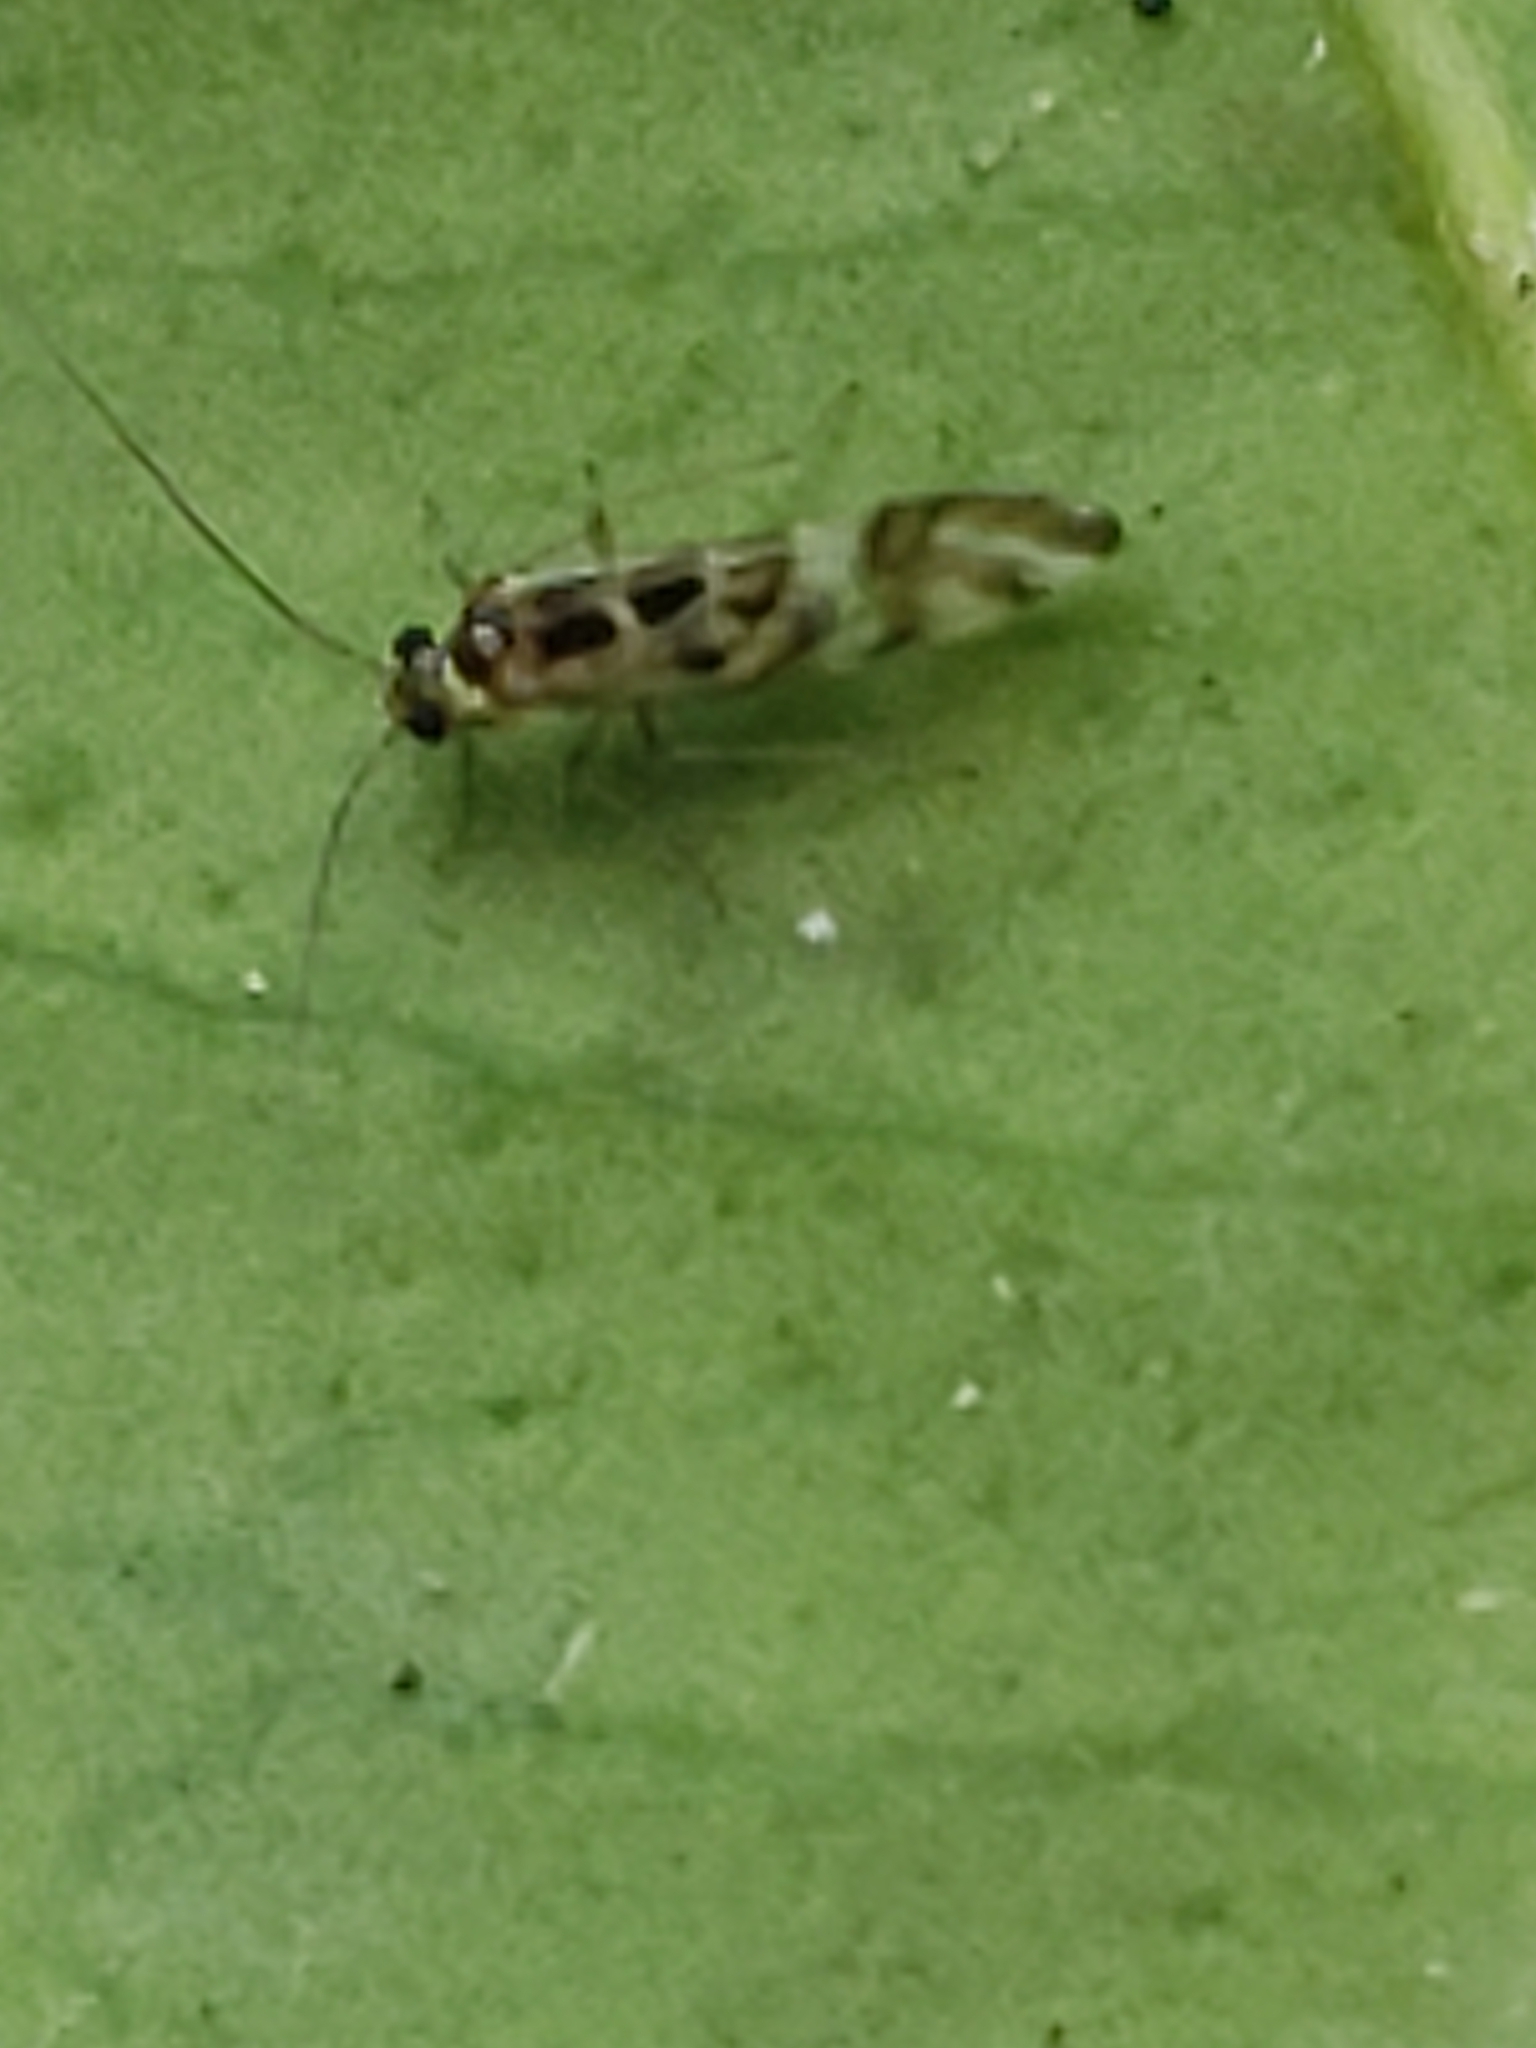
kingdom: Animalia
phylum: Arthropoda
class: Insecta
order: Psocodea
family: Stenopsocidae
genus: Graphopsocus
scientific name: Graphopsocus cruciatus
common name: Lizard bark louse
